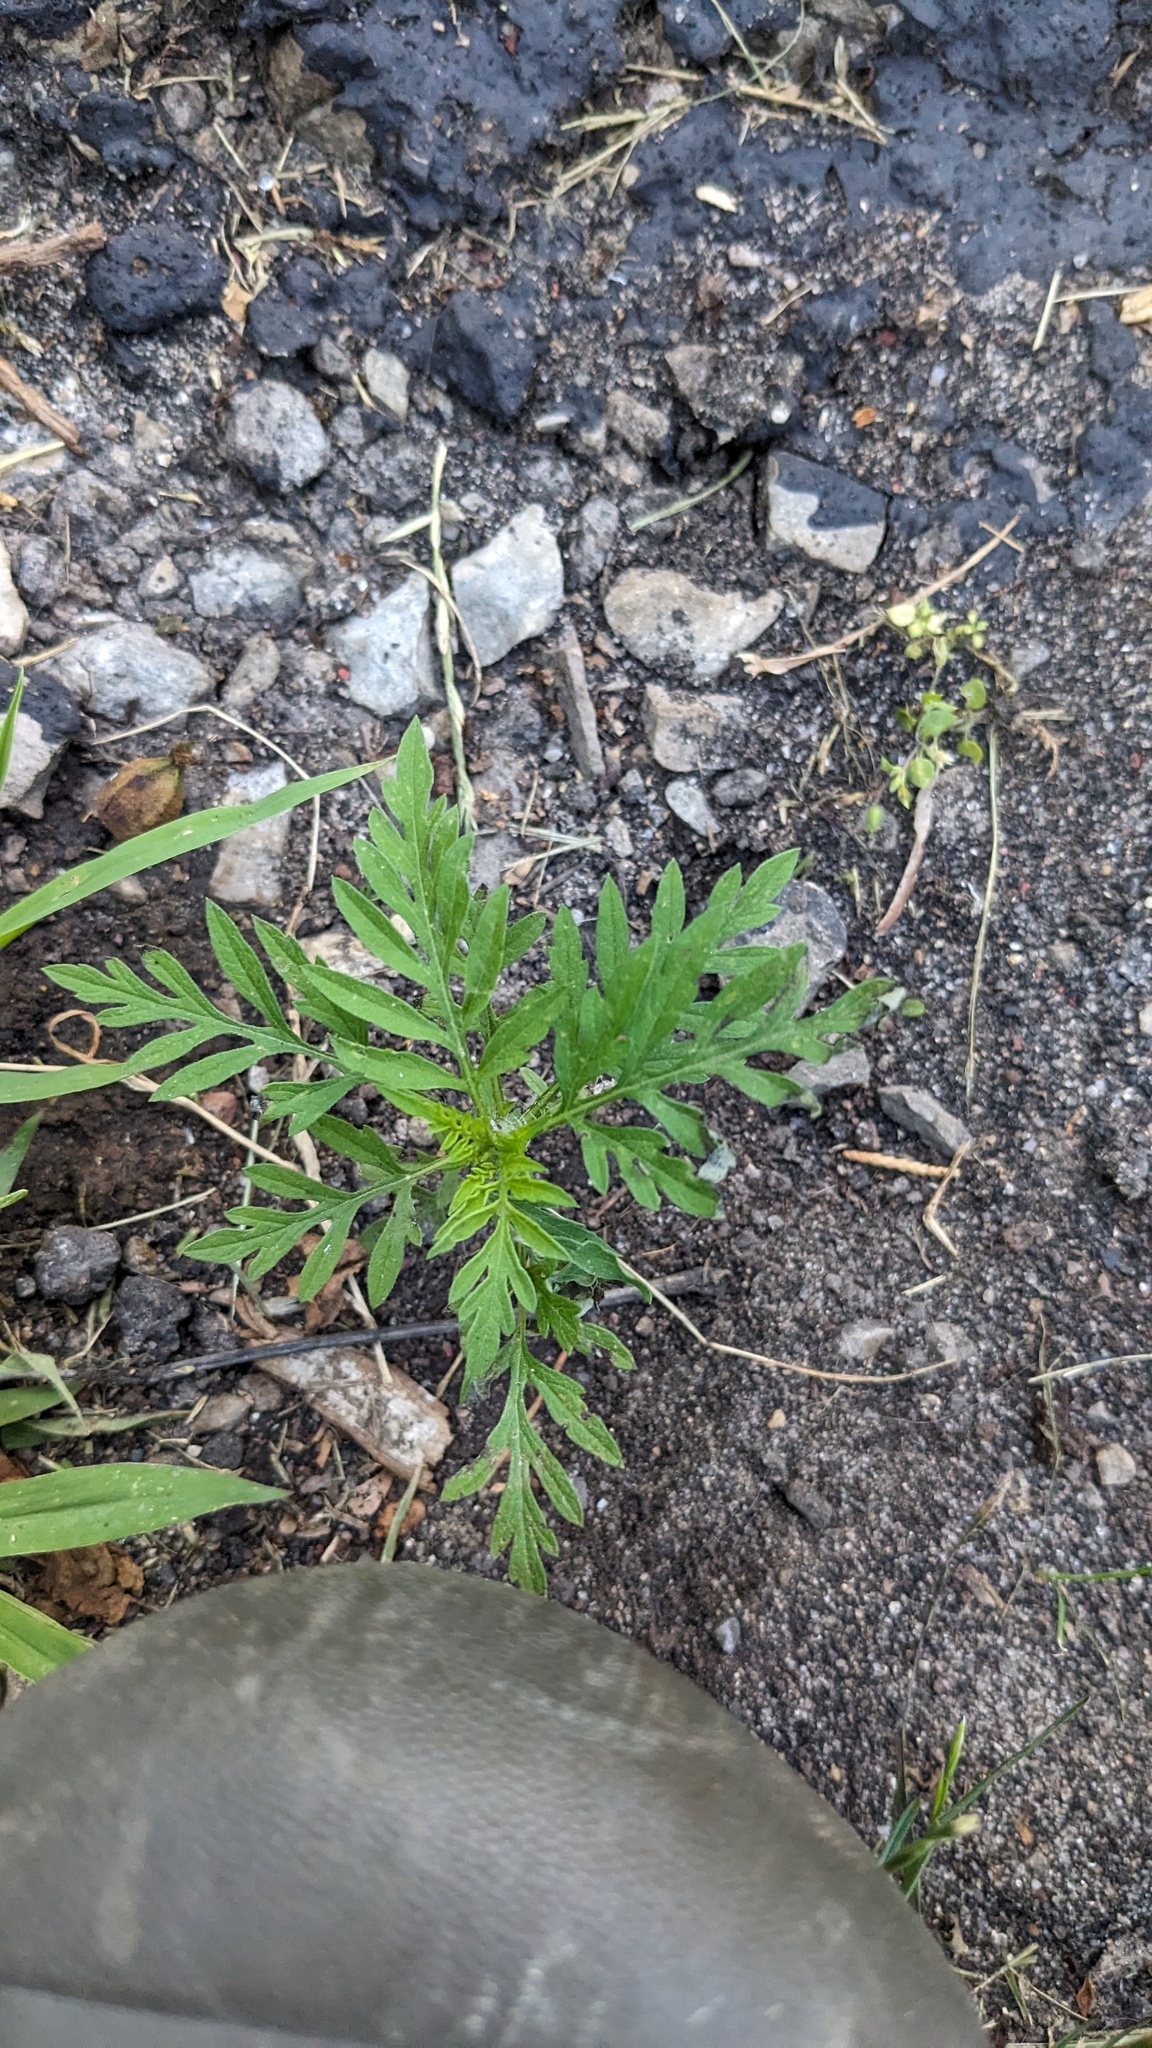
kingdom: Plantae
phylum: Tracheophyta
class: Magnoliopsida
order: Asterales
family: Asteraceae
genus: Ambrosia
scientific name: Ambrosia artemisiifolia
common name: Annual ragweed
